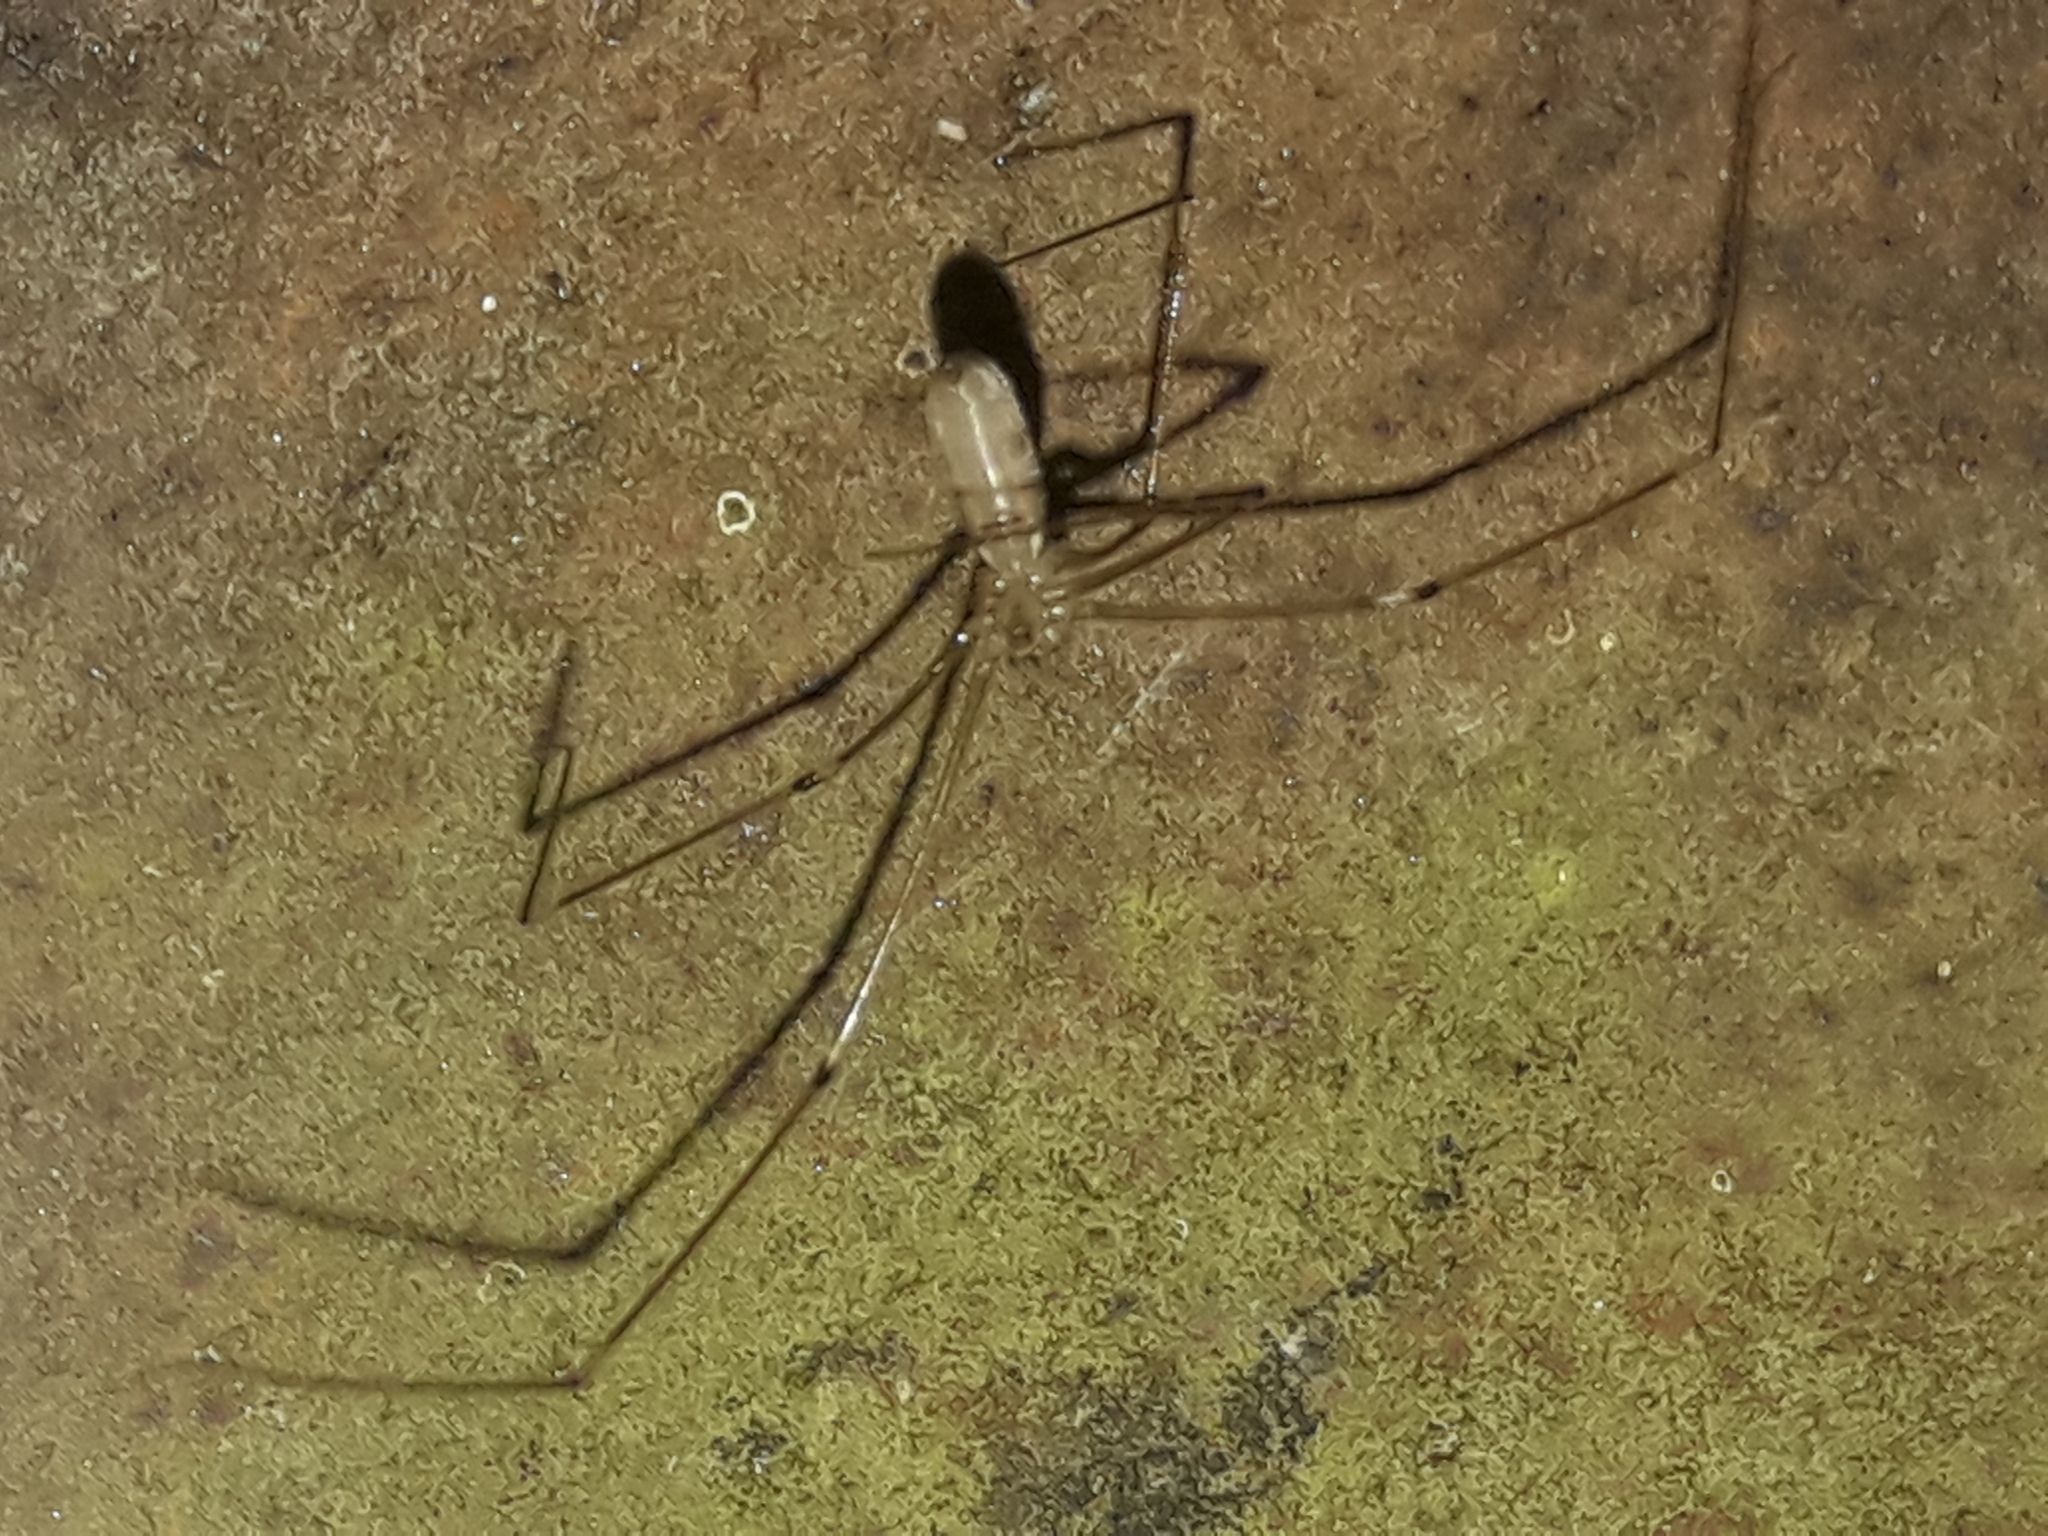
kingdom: Animalia
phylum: Arthropoda
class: Arachnida
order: Araneae
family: Pholcidae
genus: Pholcus
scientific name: Pholcus phalangioides
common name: Longbodied cellar spider
